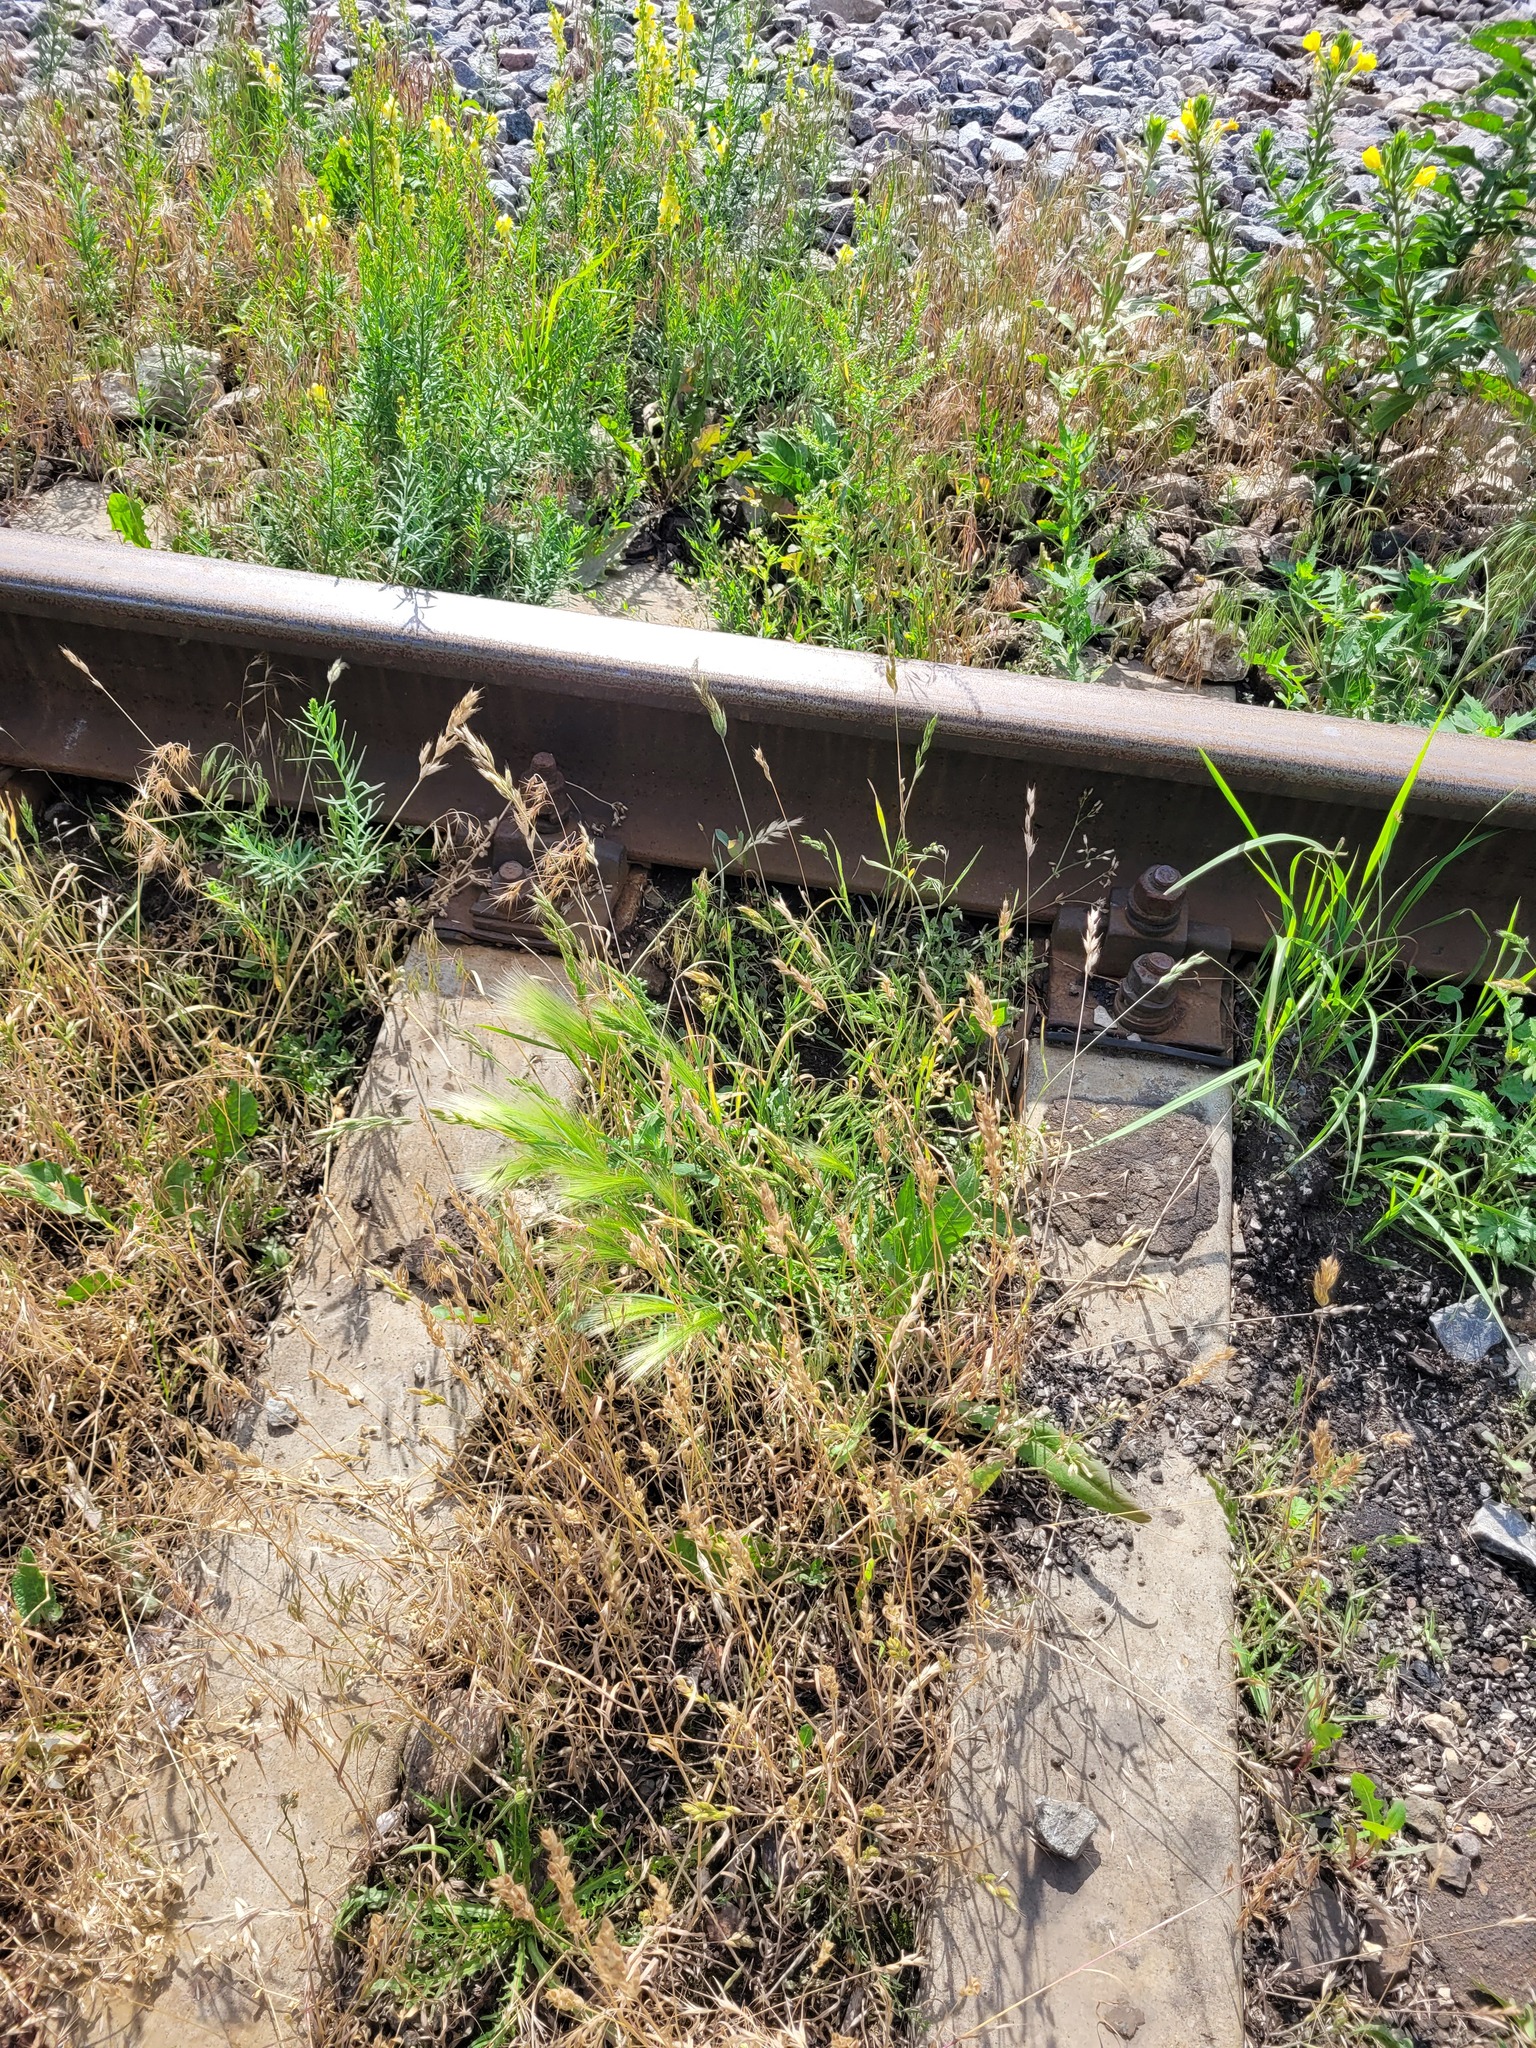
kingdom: Plantae
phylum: Tracheophyta
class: Liliopsida
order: Poales
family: Poaceae
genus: Hordeum
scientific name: Hordeum jubatum
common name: Foxtail barley
